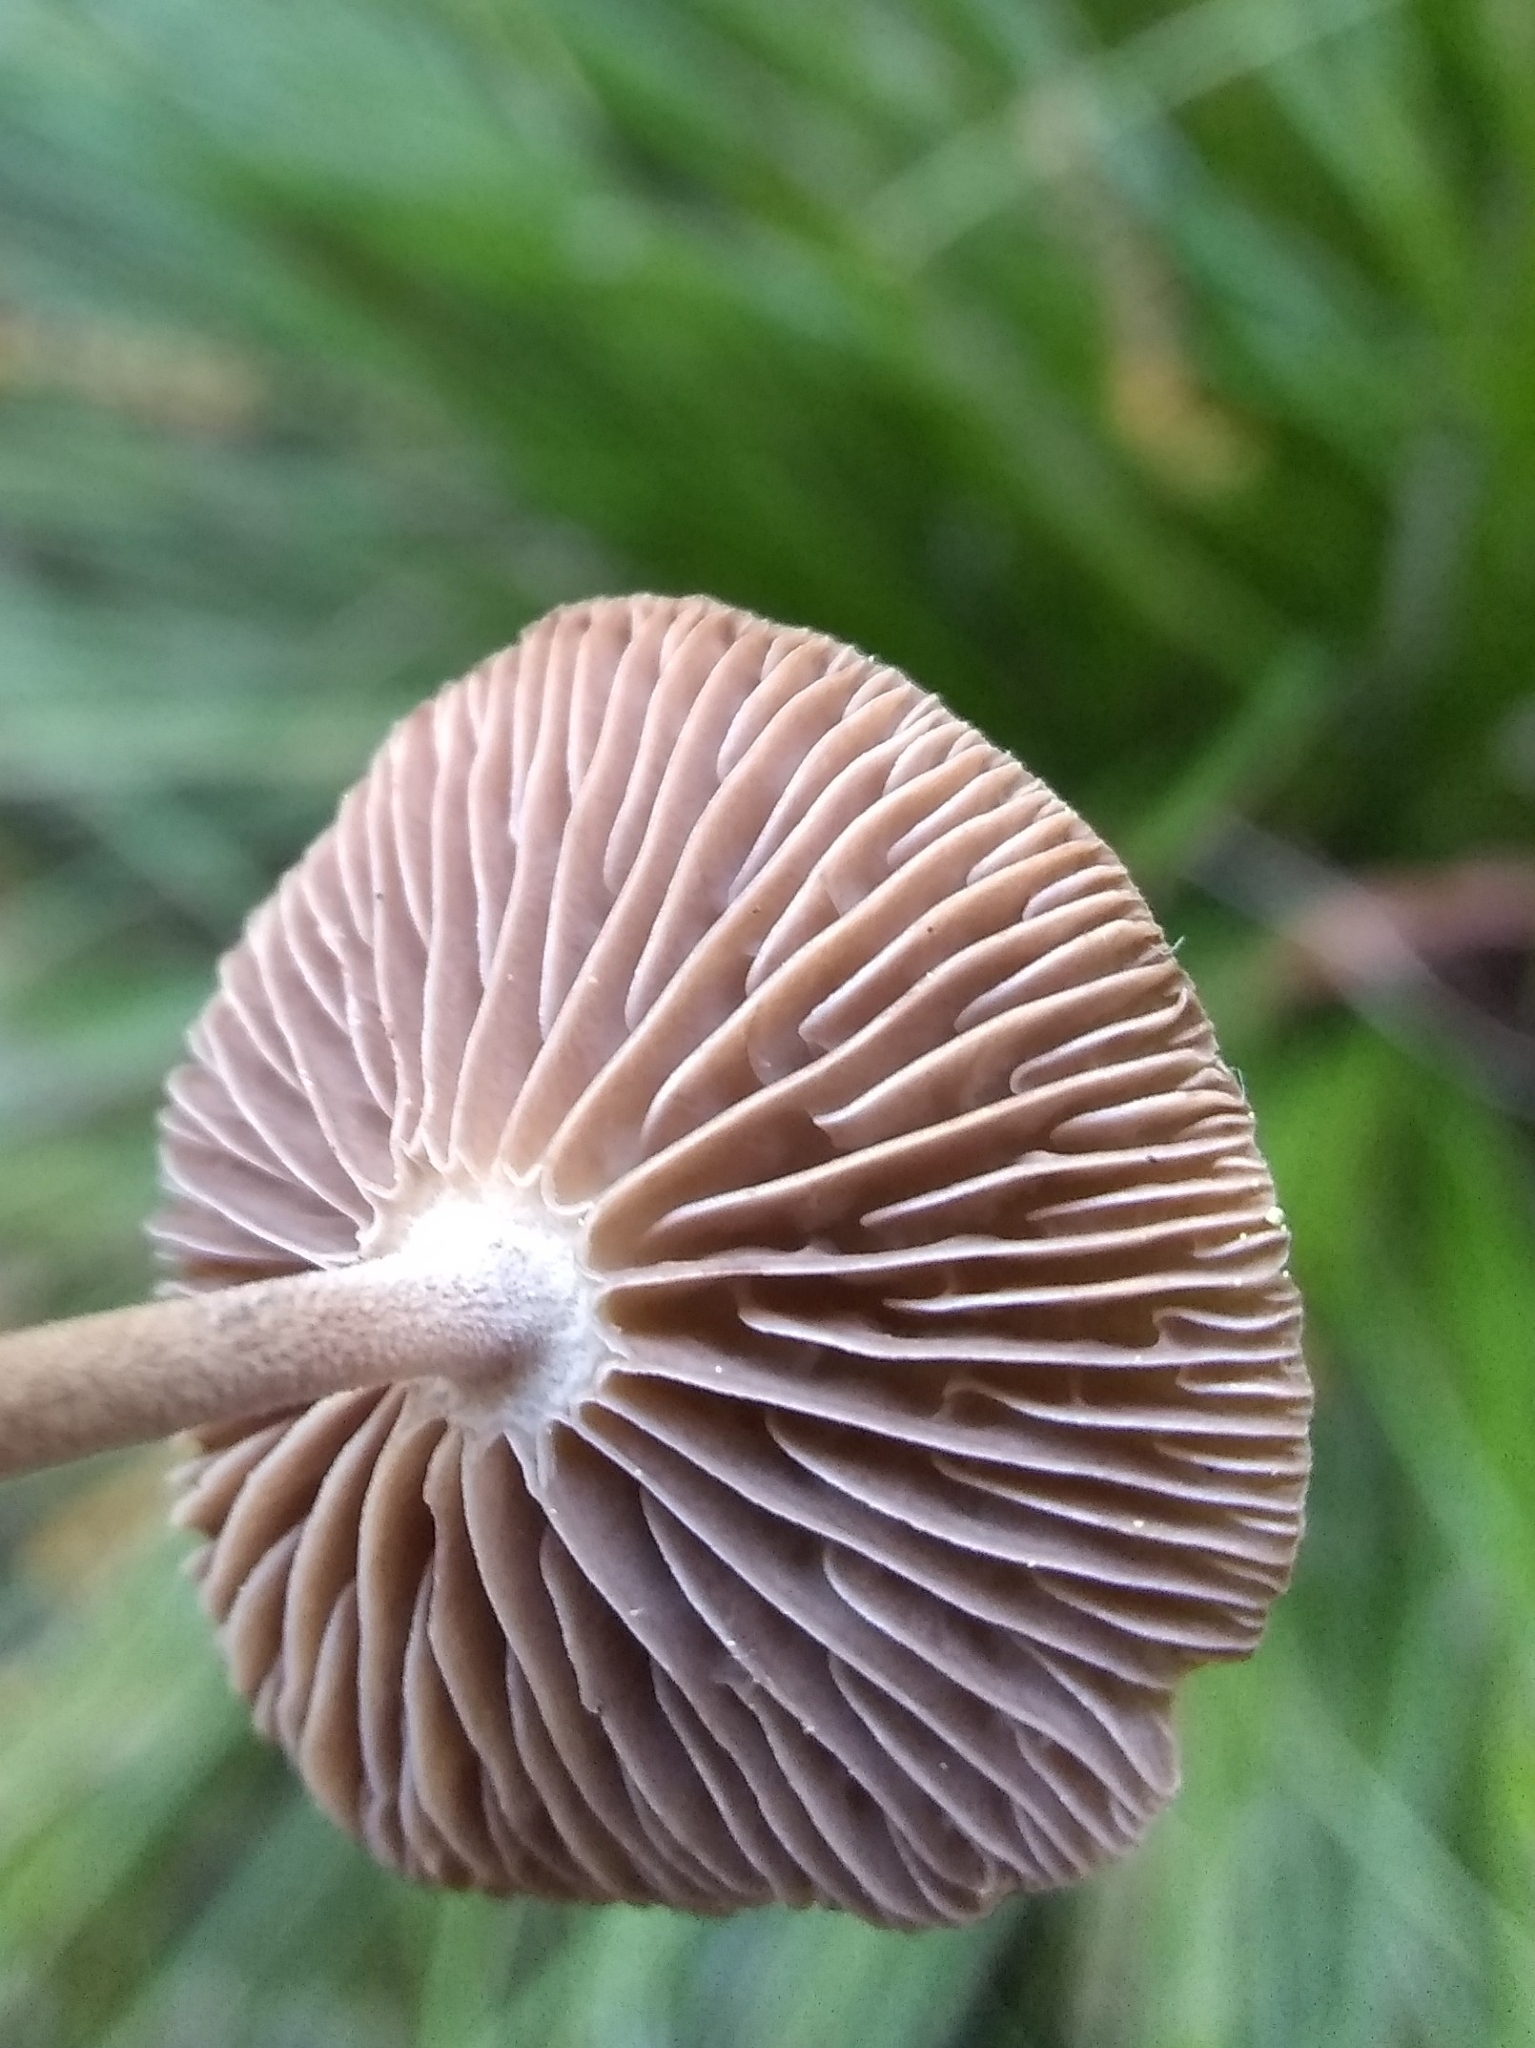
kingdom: Fungi
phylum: Basidiomycota
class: Agaricomycetes
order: Agaricales
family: Omphalotaceae
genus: Collybiopsis
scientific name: Collybiopsis villosipes
